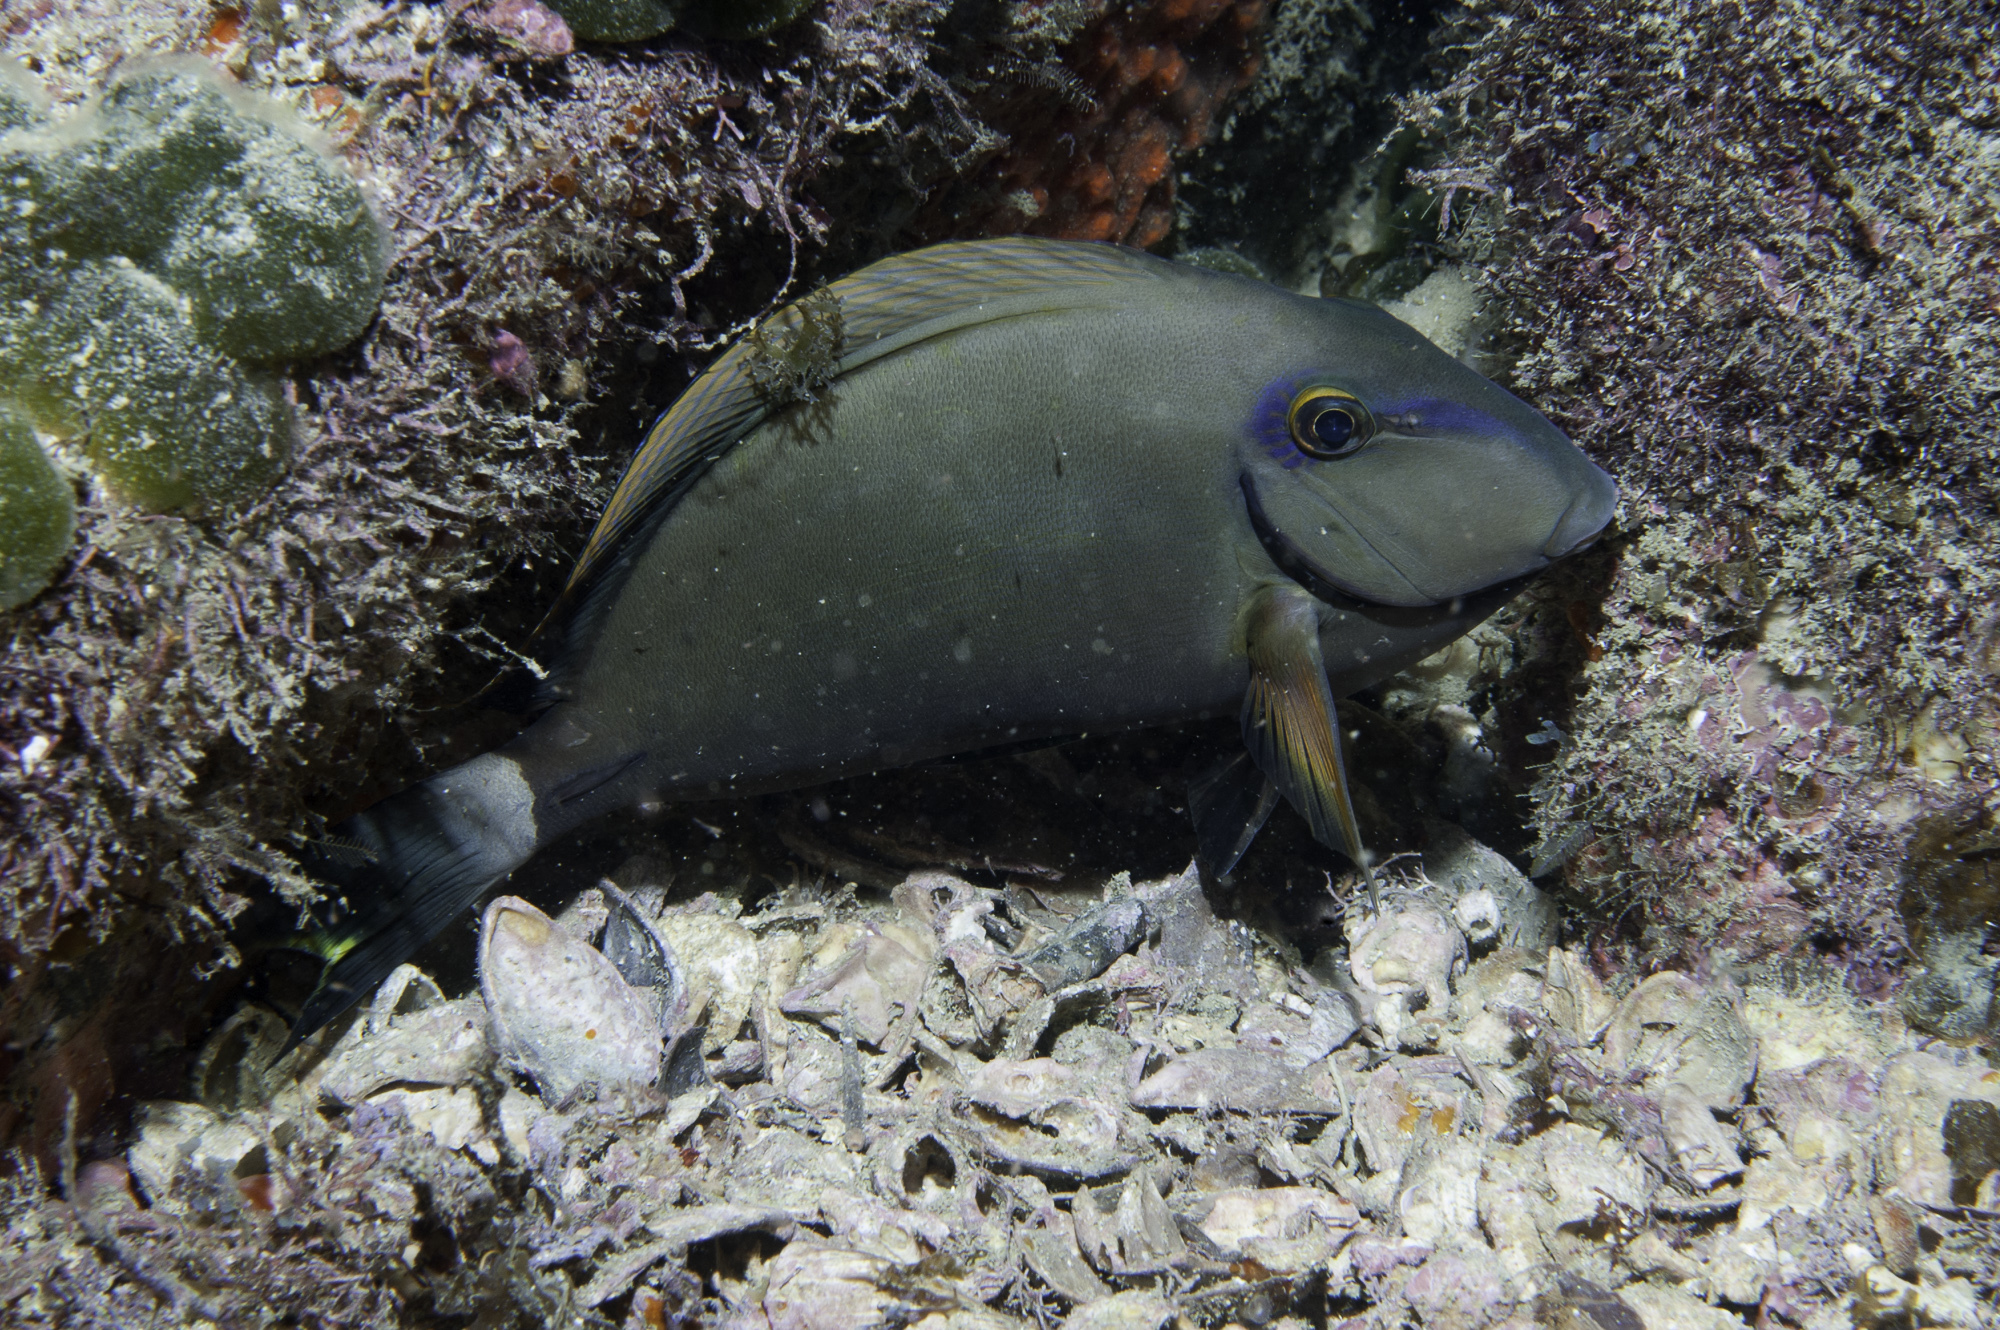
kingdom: Animalia
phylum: Chordata
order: Perciformes
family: Acanthuridae
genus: Acanthurus
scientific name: Acanthurus bahianus
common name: Ocean surgeon
